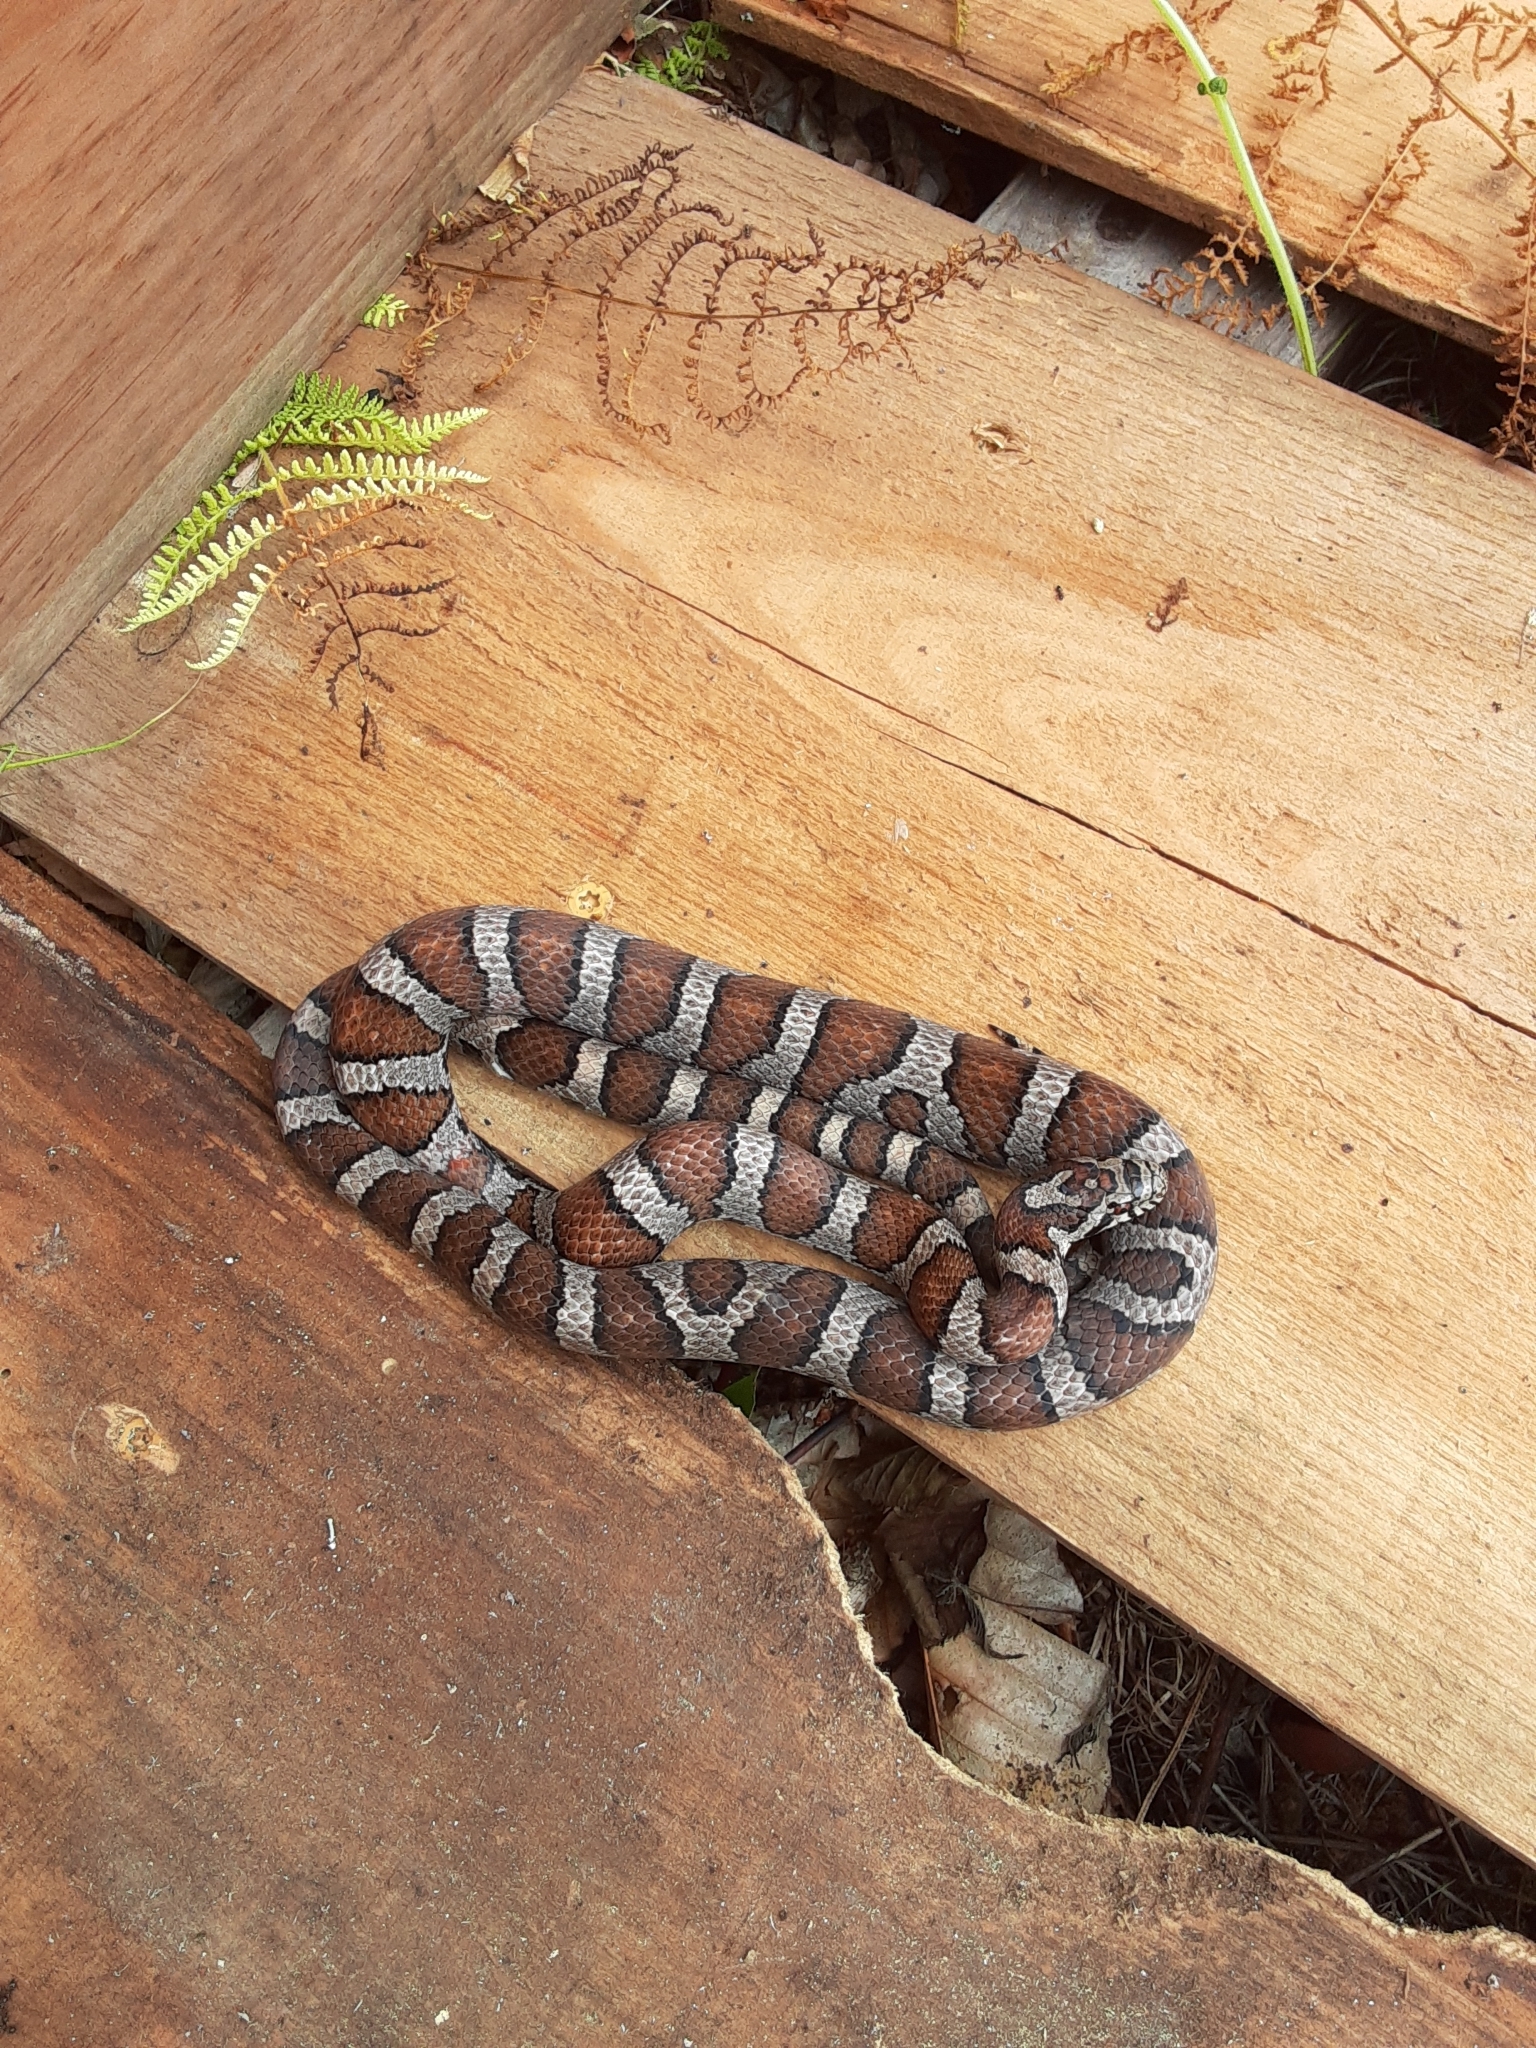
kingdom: Animalia
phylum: Chordata
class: Squamata
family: Colubridae
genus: Lampropeltis
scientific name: Lampropeltis triangulum
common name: Eastern milksnake
